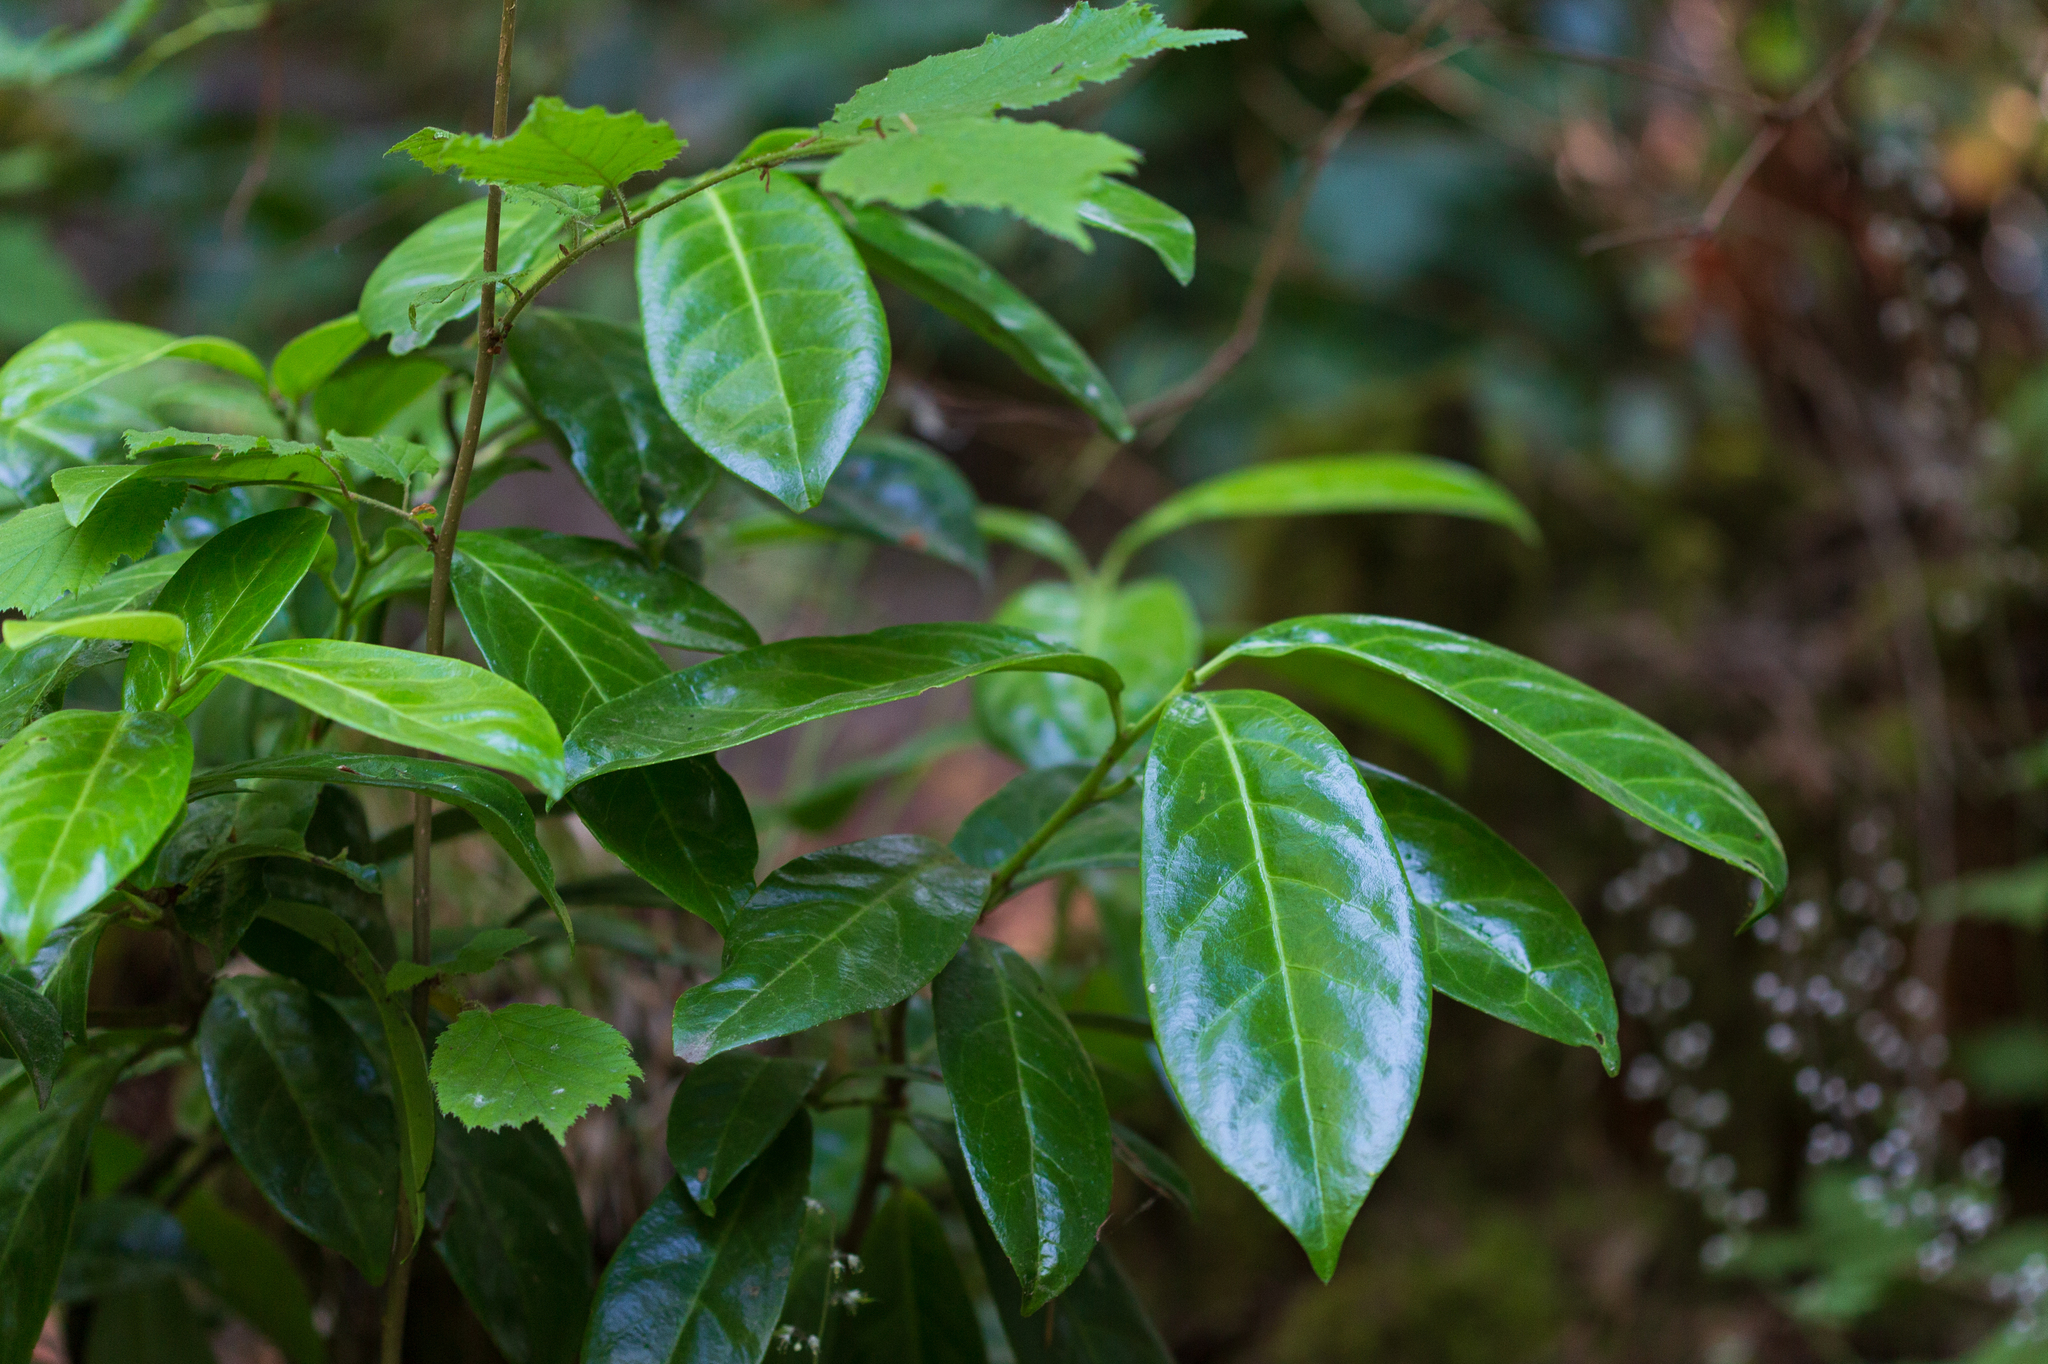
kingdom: Plantae
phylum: Tracheophyta
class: Magnoliopsida
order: Rosales
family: Rosaceae
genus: Prunus
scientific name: Prunus laurocerasus
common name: Cherry laurel
